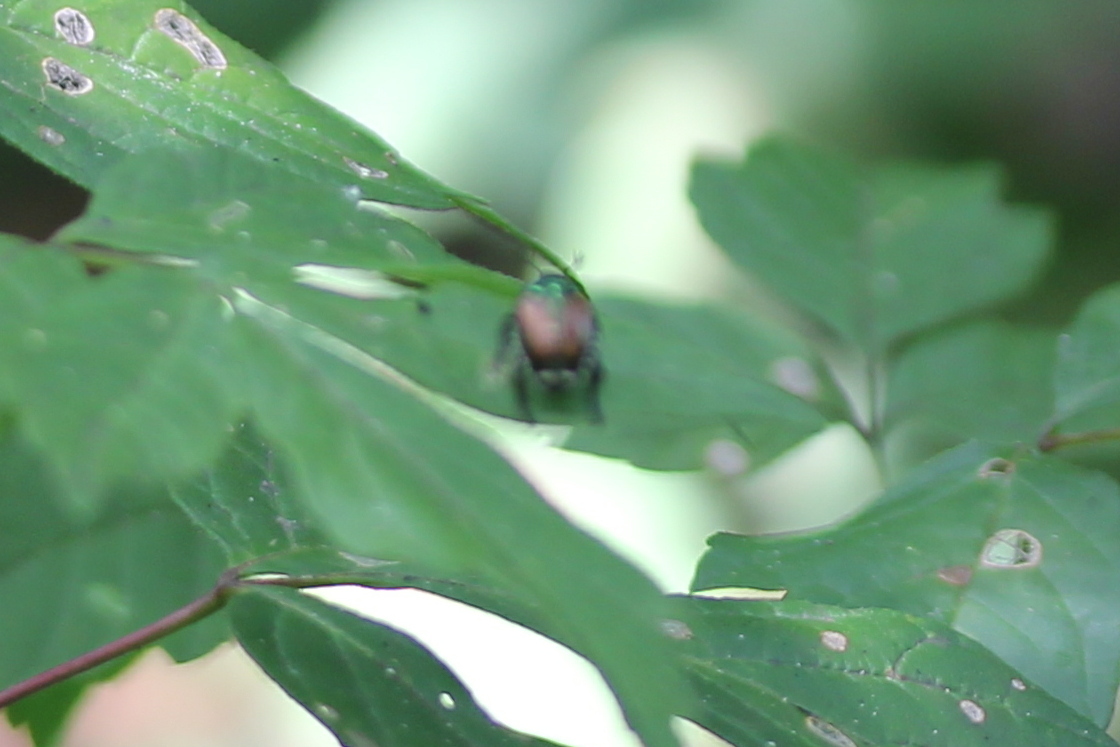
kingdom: Animalia
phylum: Arthropoda
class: Insecta
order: Coleoptera
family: Scarabaeidae
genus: Popillia
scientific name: Popillia japonica
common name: Japanese beetle
